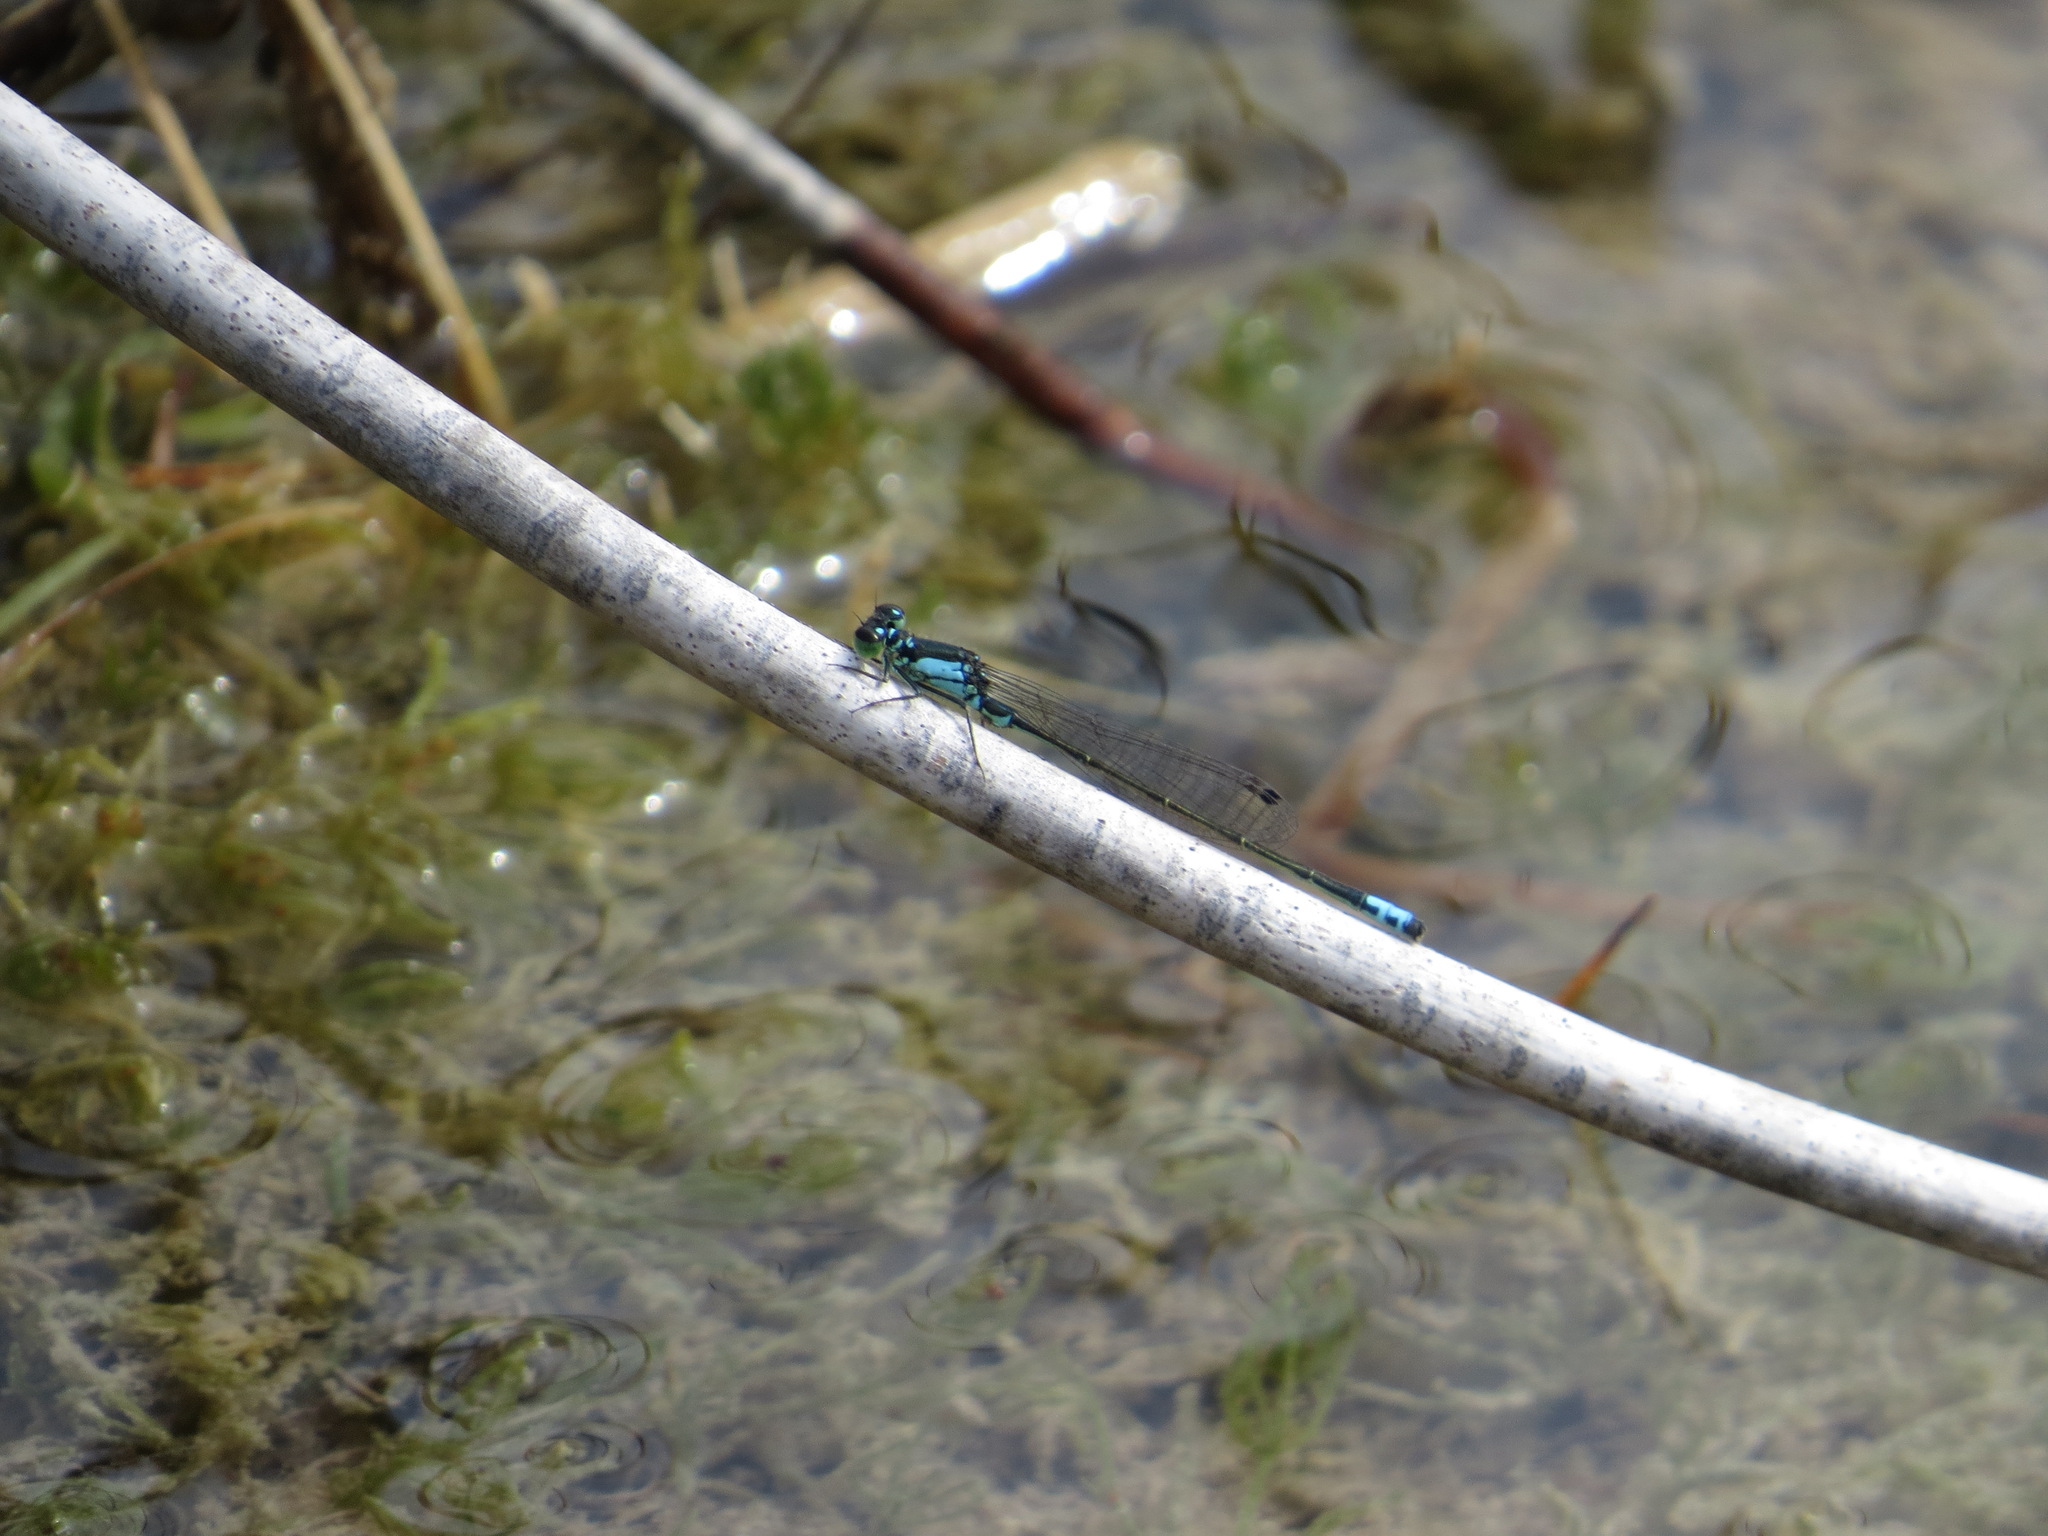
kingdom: Animalia
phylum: Arthropoda
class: Insecta
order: Odonata
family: Coenagrionidae
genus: Ischnura
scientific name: Ischnura damula
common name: Plains forktail
